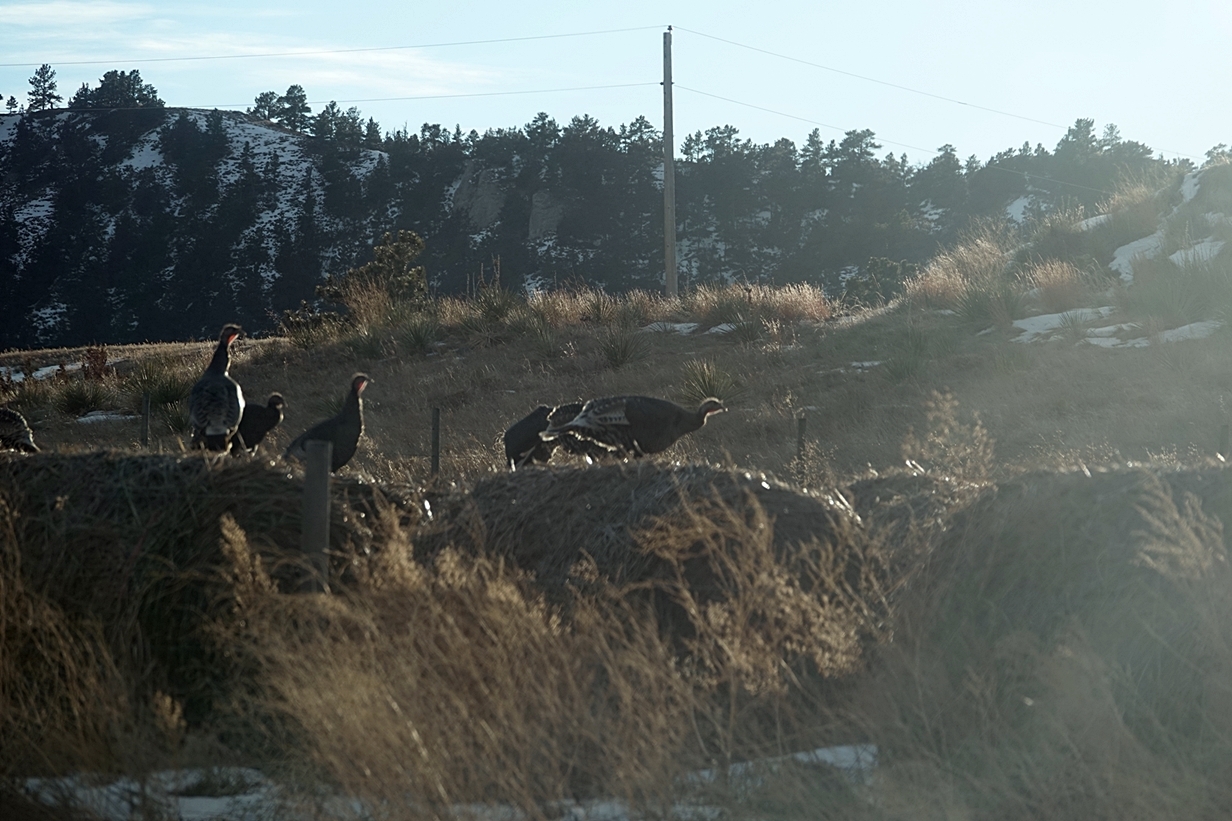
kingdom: Animalia
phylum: Chordata
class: Aves
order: Galliformes
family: Phasianidae
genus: Meleagris
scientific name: Meleagris gallopavo
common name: Wild turkey
